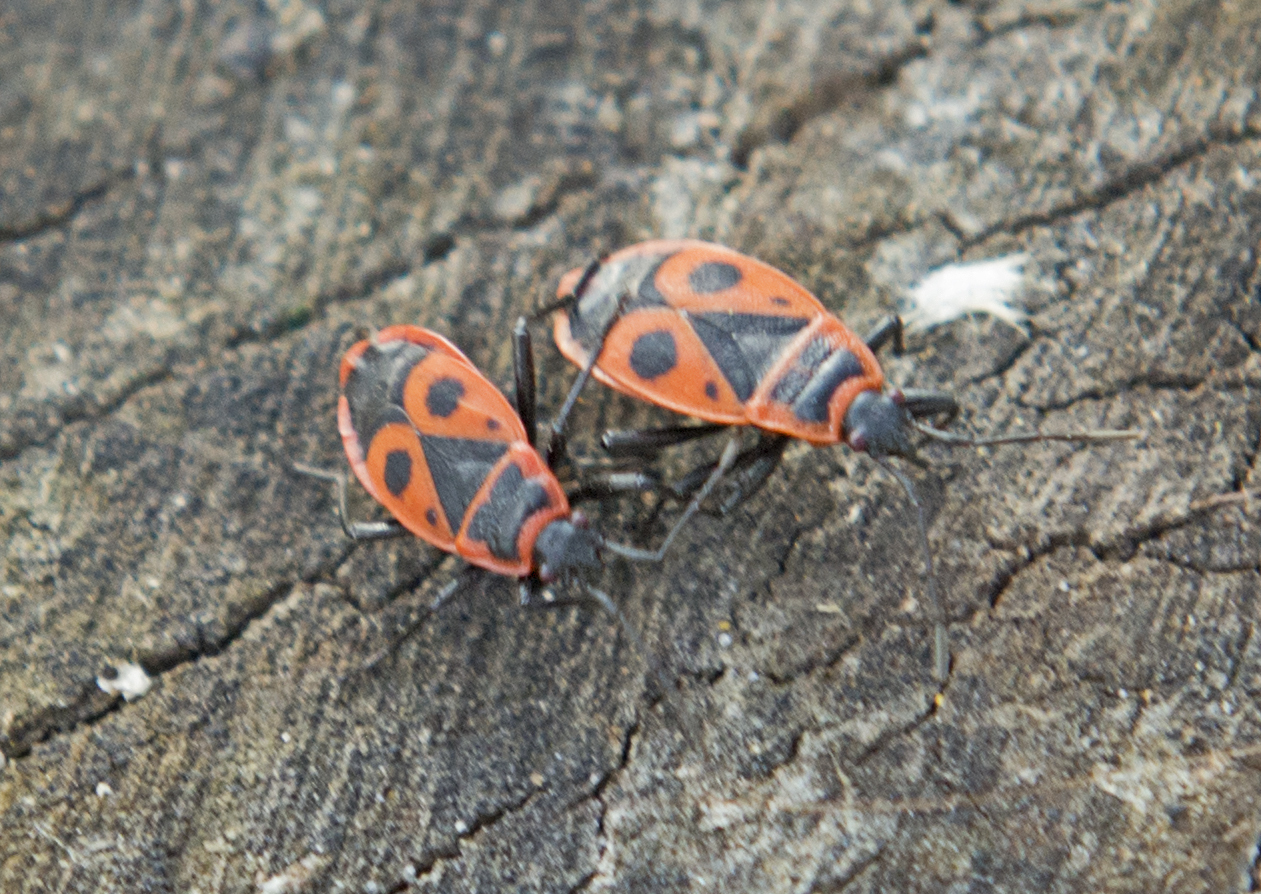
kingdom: Animalia
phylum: Arthropoda
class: Insecta
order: Hemiptera
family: Pyrrhocoridae
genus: Pyrrhocoris
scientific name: Pyrrhocoris apterus
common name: Firebug
